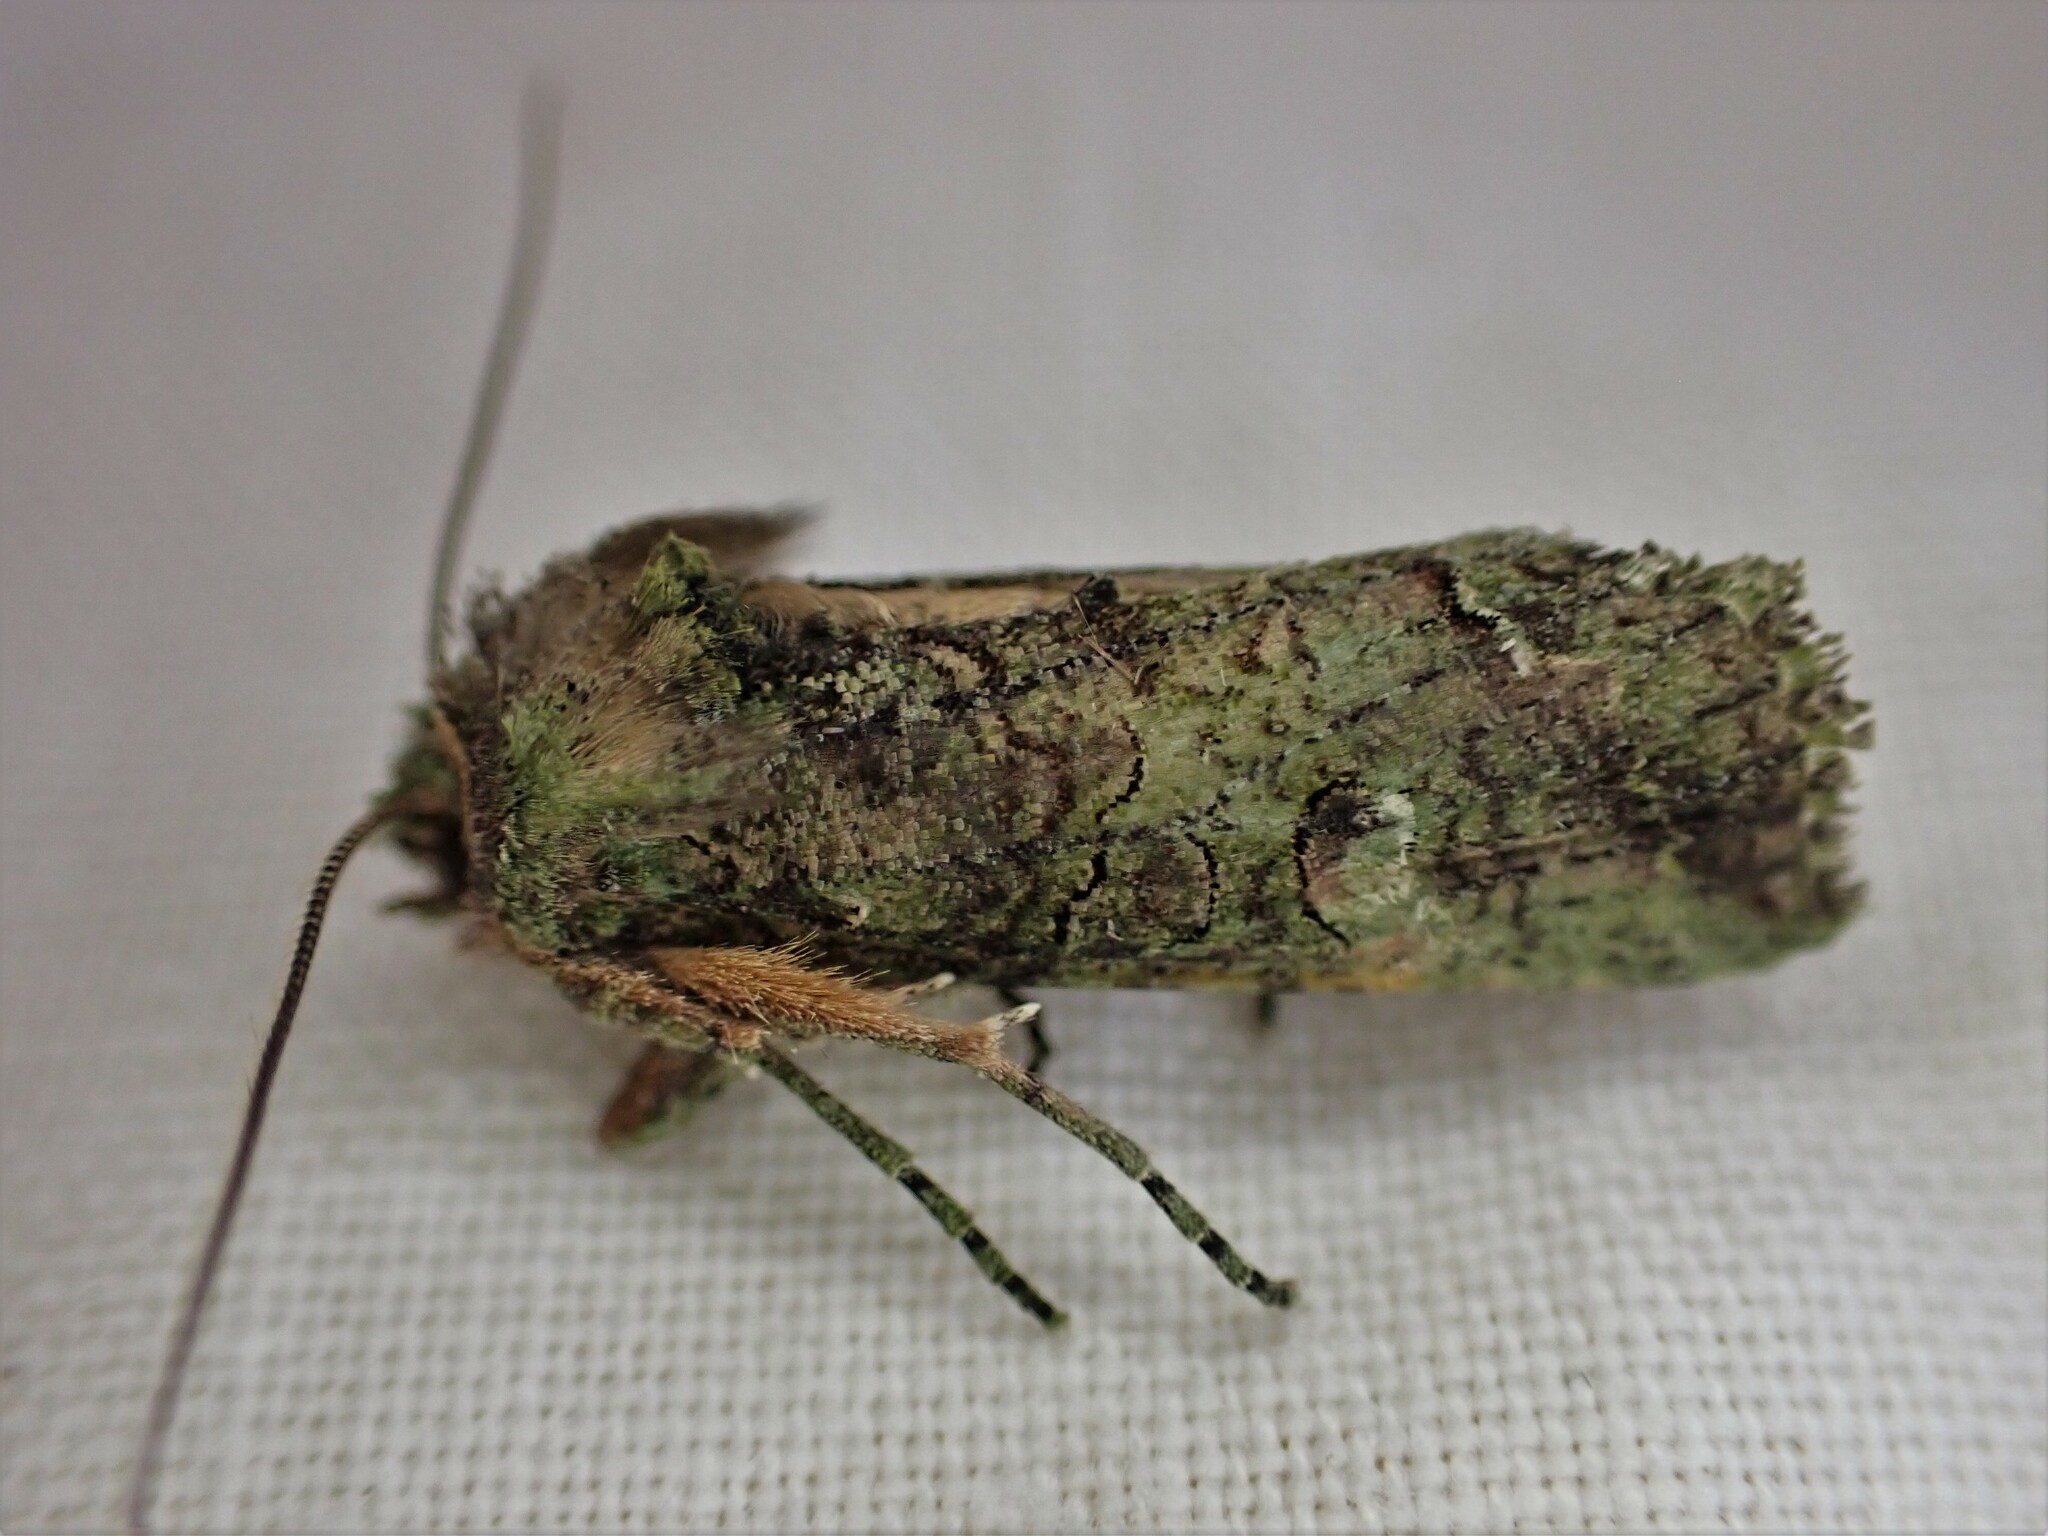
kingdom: Animalia
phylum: Arthropoda
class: Insecta
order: Lepidoptera
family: Noctuidae
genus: Meterana
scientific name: Meterana levis
